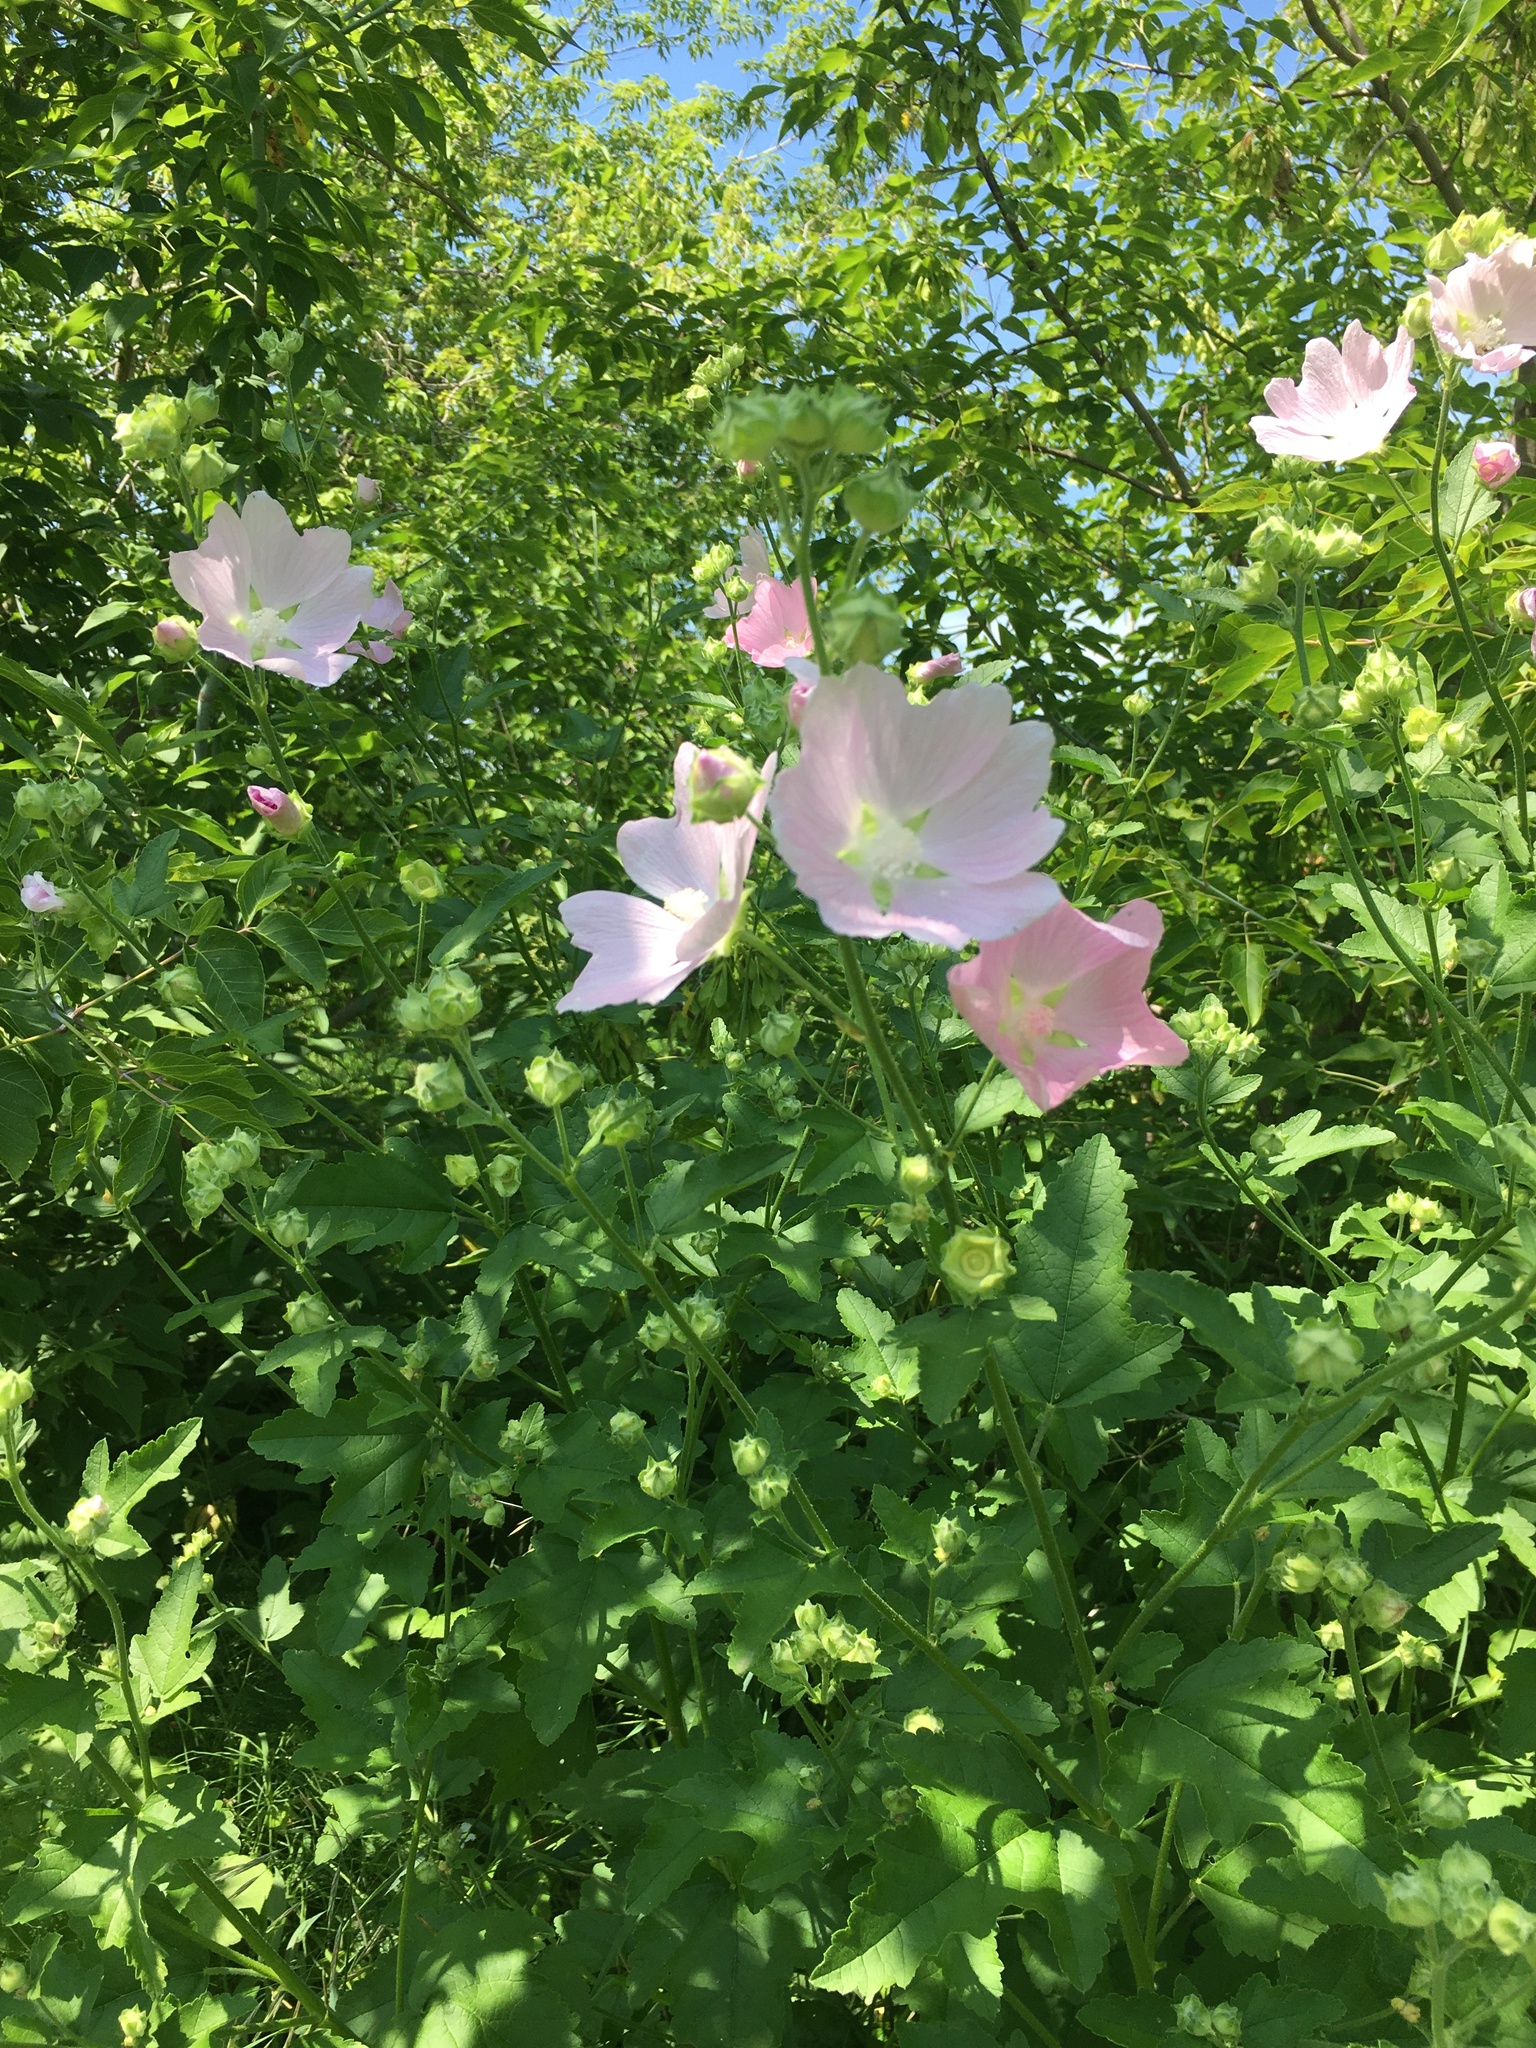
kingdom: Plantae
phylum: Tracheophyta
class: Magnoliopsida
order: Malvales
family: Malvaceae
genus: Malva
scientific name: Malva thuringiaca
